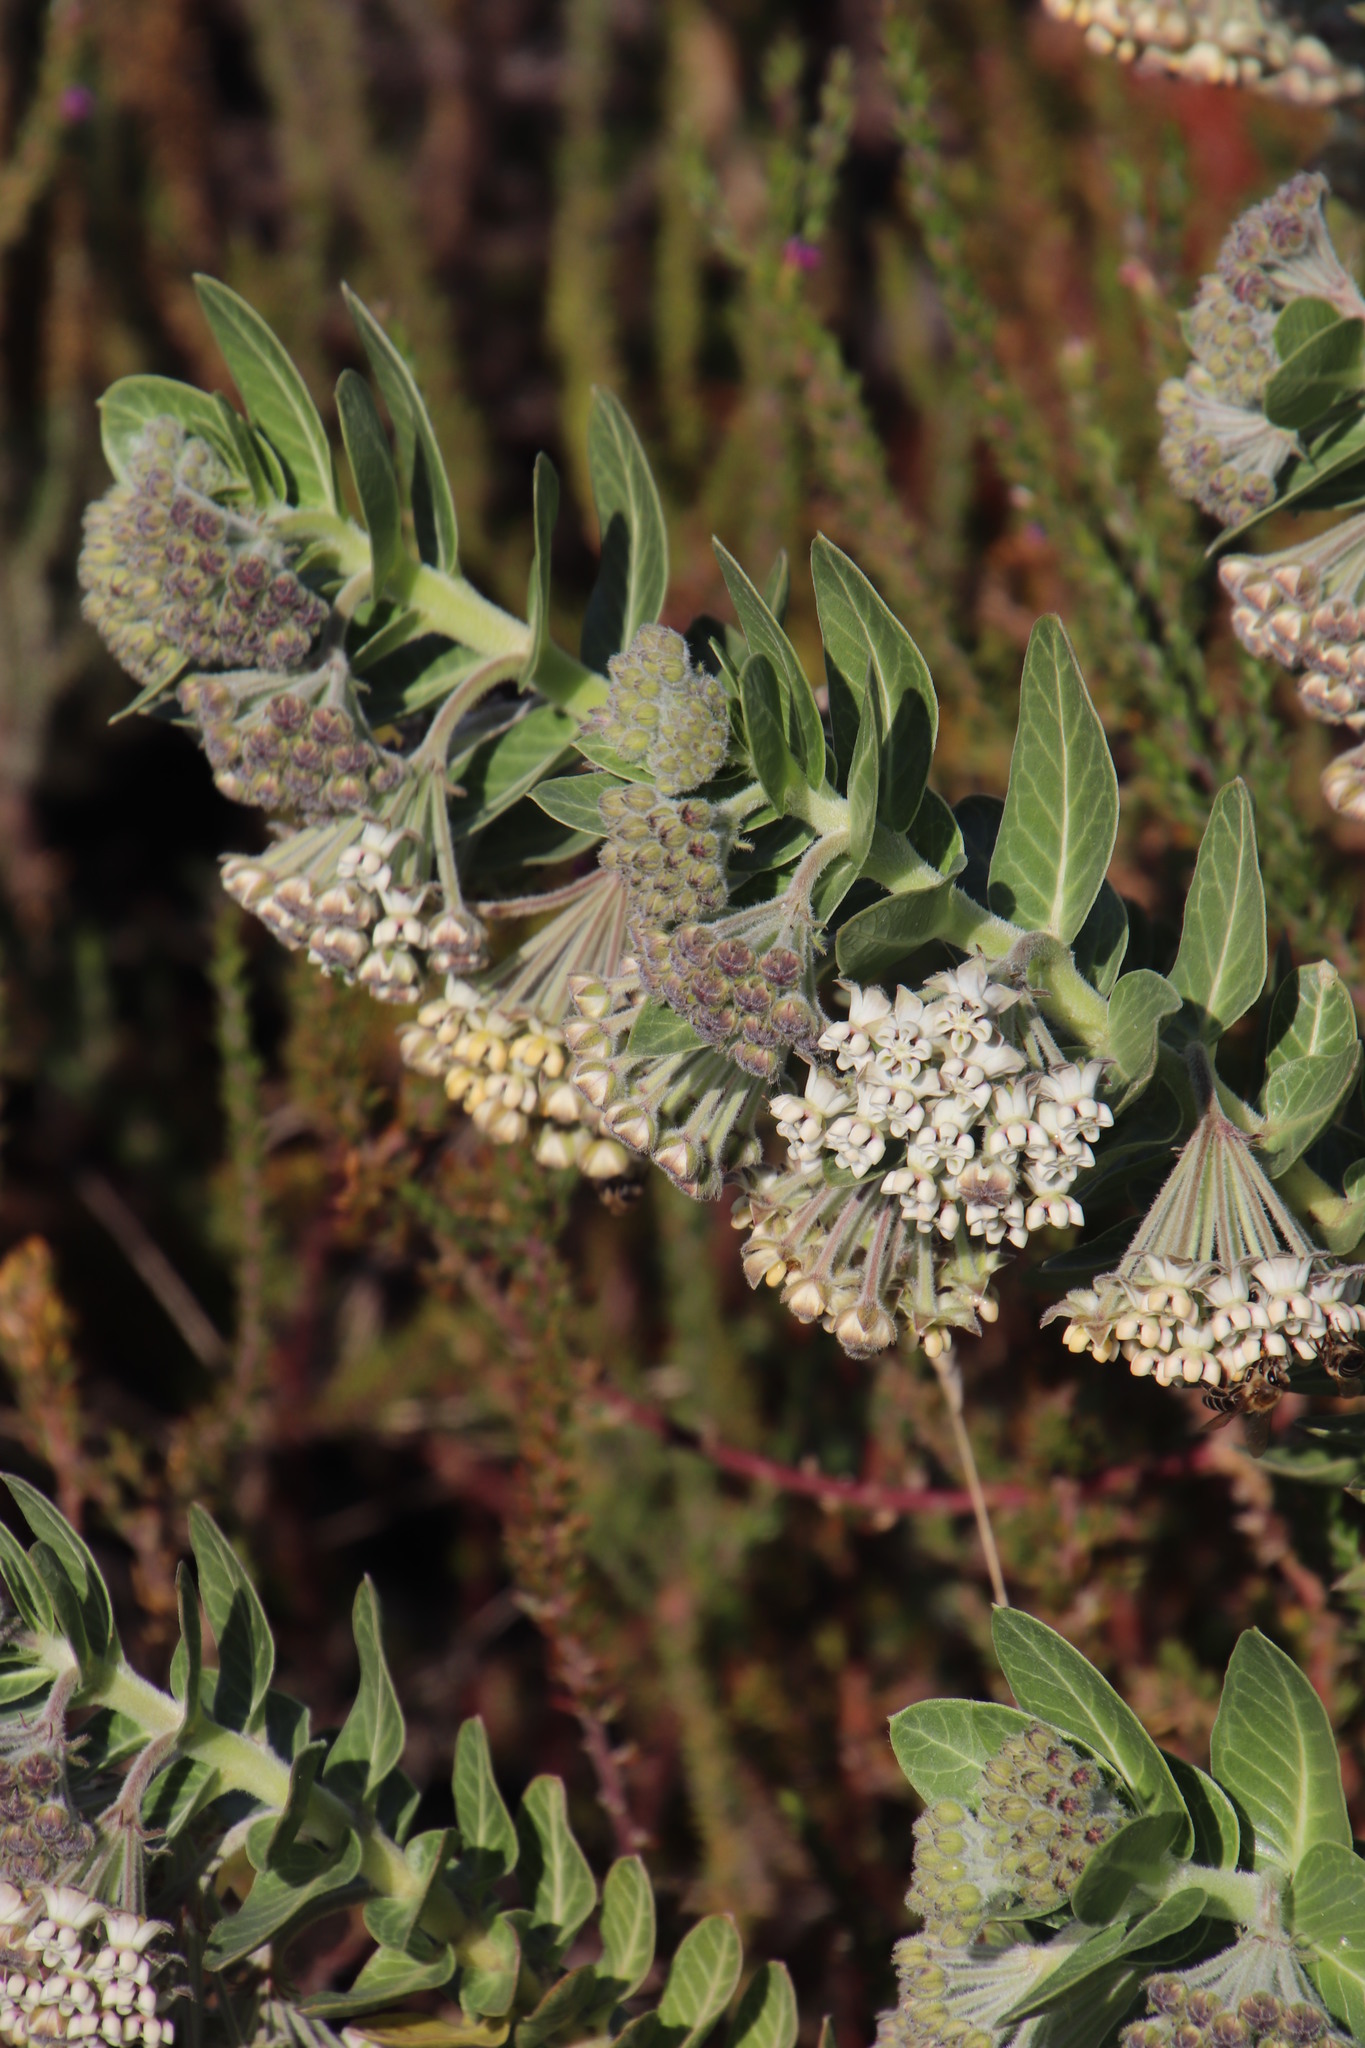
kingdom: Plantae
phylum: Tracheophyta
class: Magnoliopsida
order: Gentianales
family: Apocynaceae
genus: Gomphocarpus
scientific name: Gomphocarpus cancellatus
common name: Wild cotton
